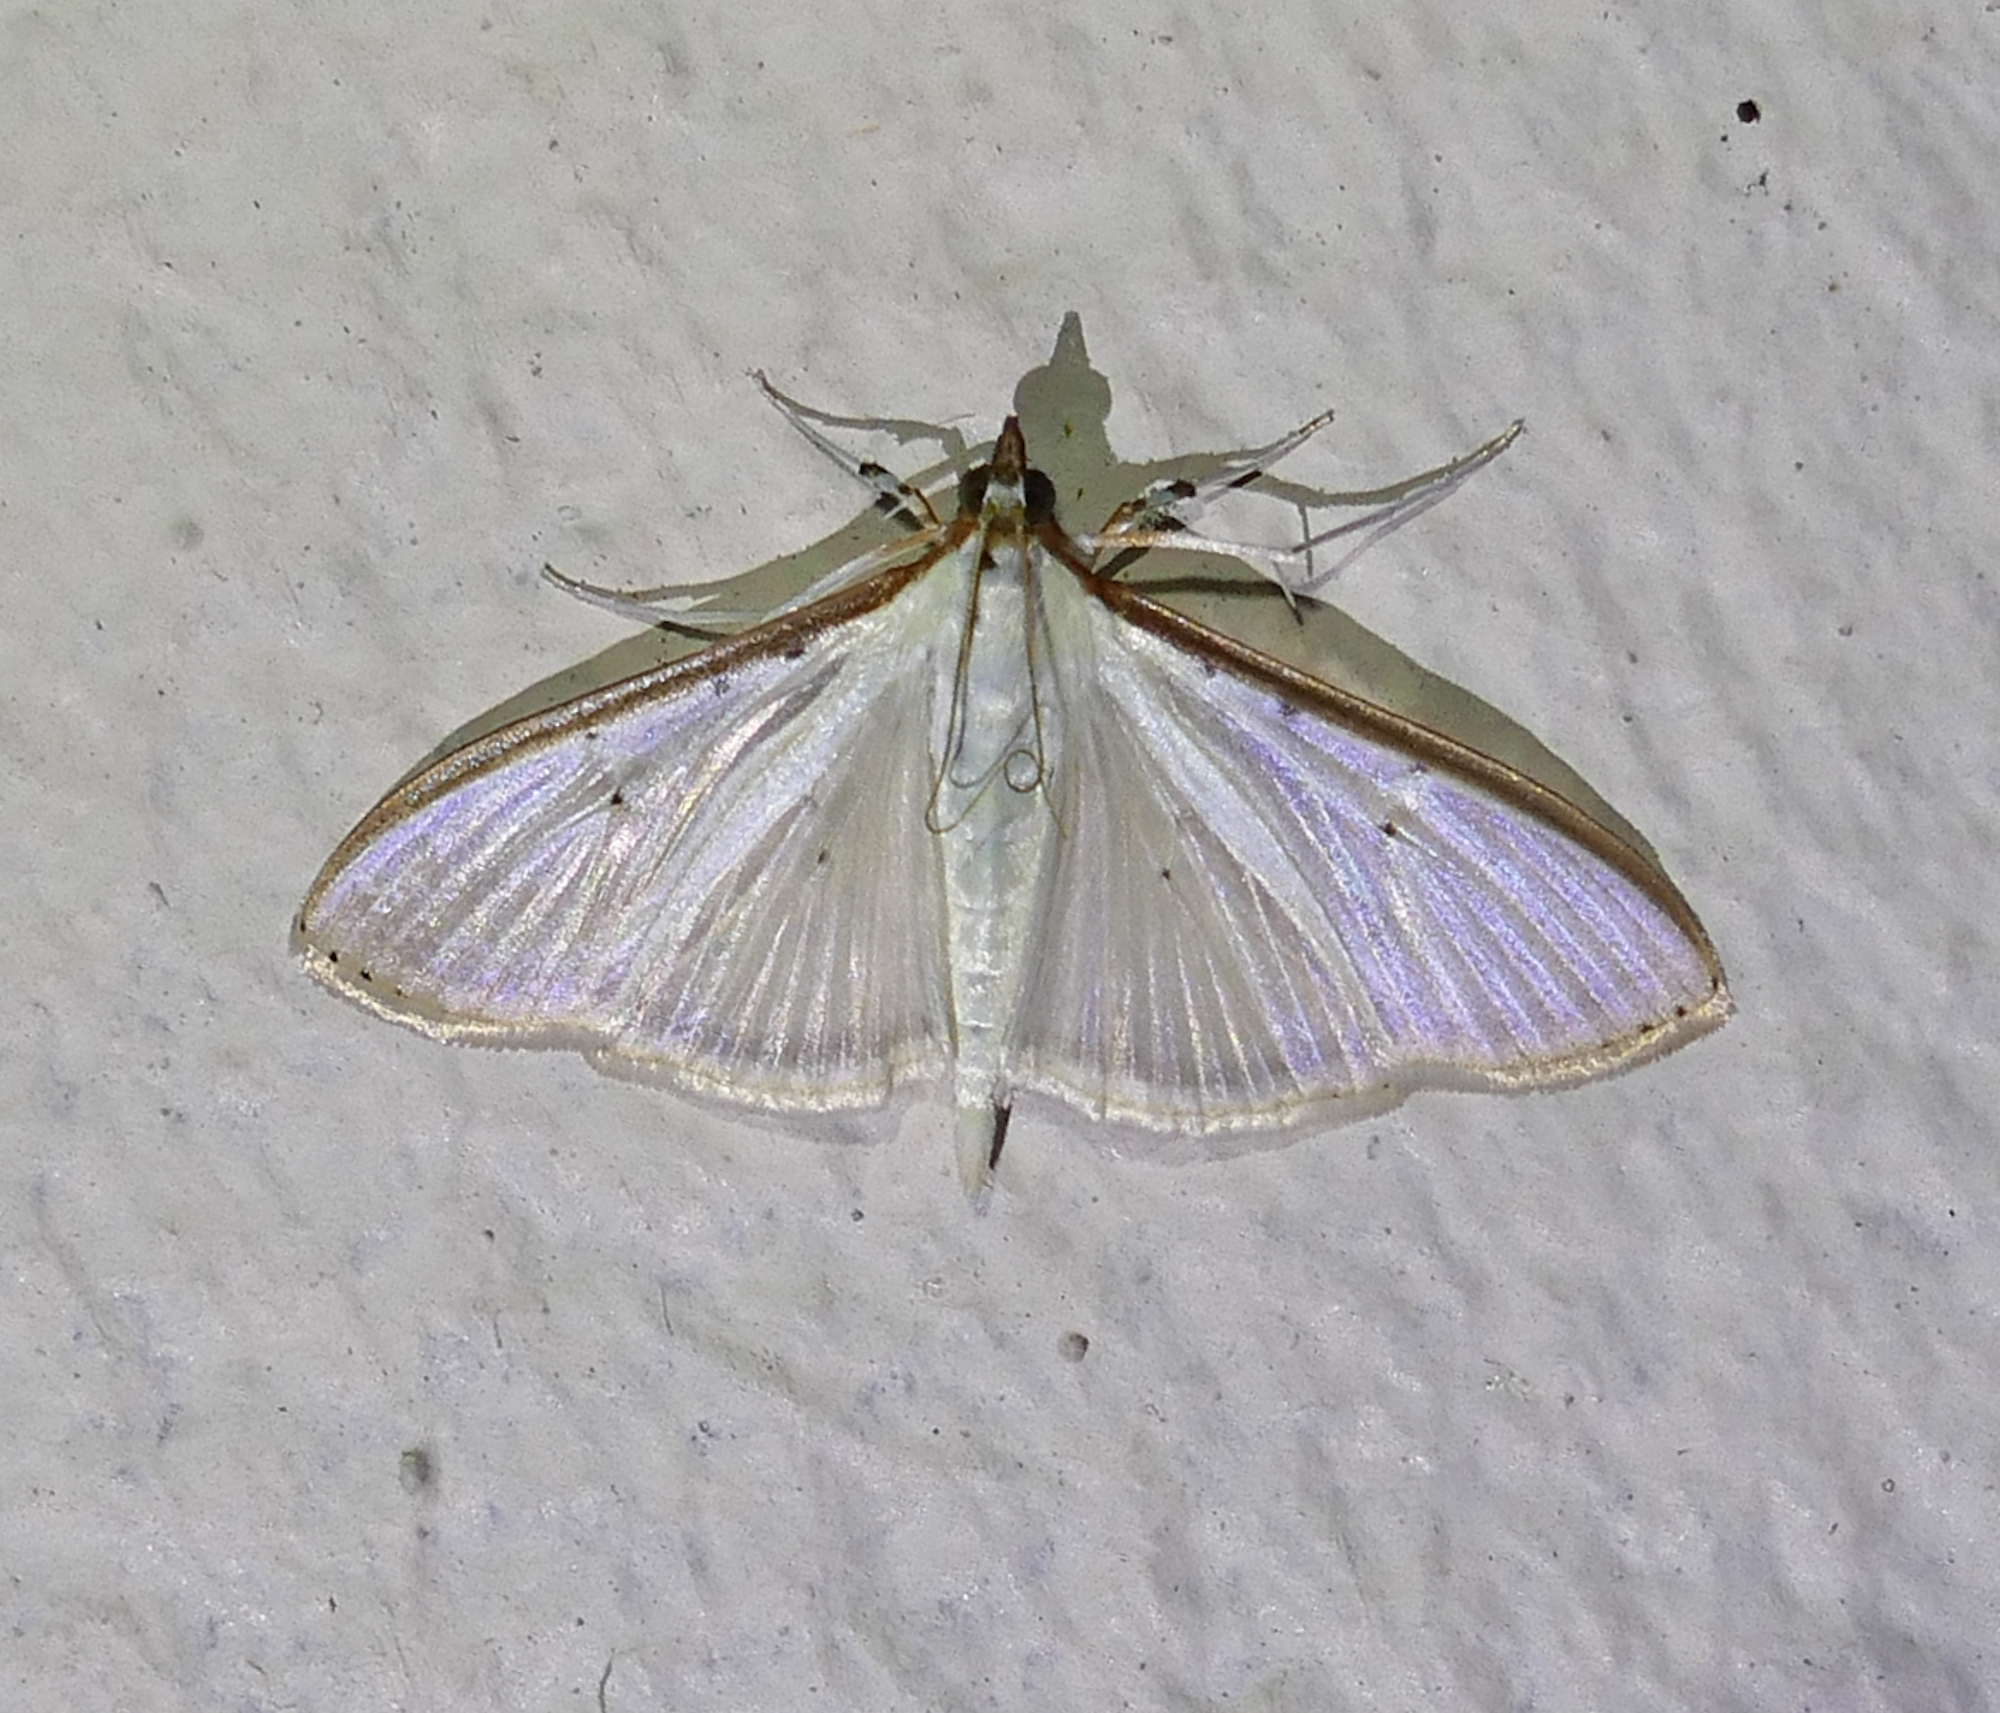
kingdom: Animalia
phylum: Arthropoda
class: Insecta
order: Lepidoptera
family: Crambidae
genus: Palpita
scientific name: Palpita quadristigmalis
